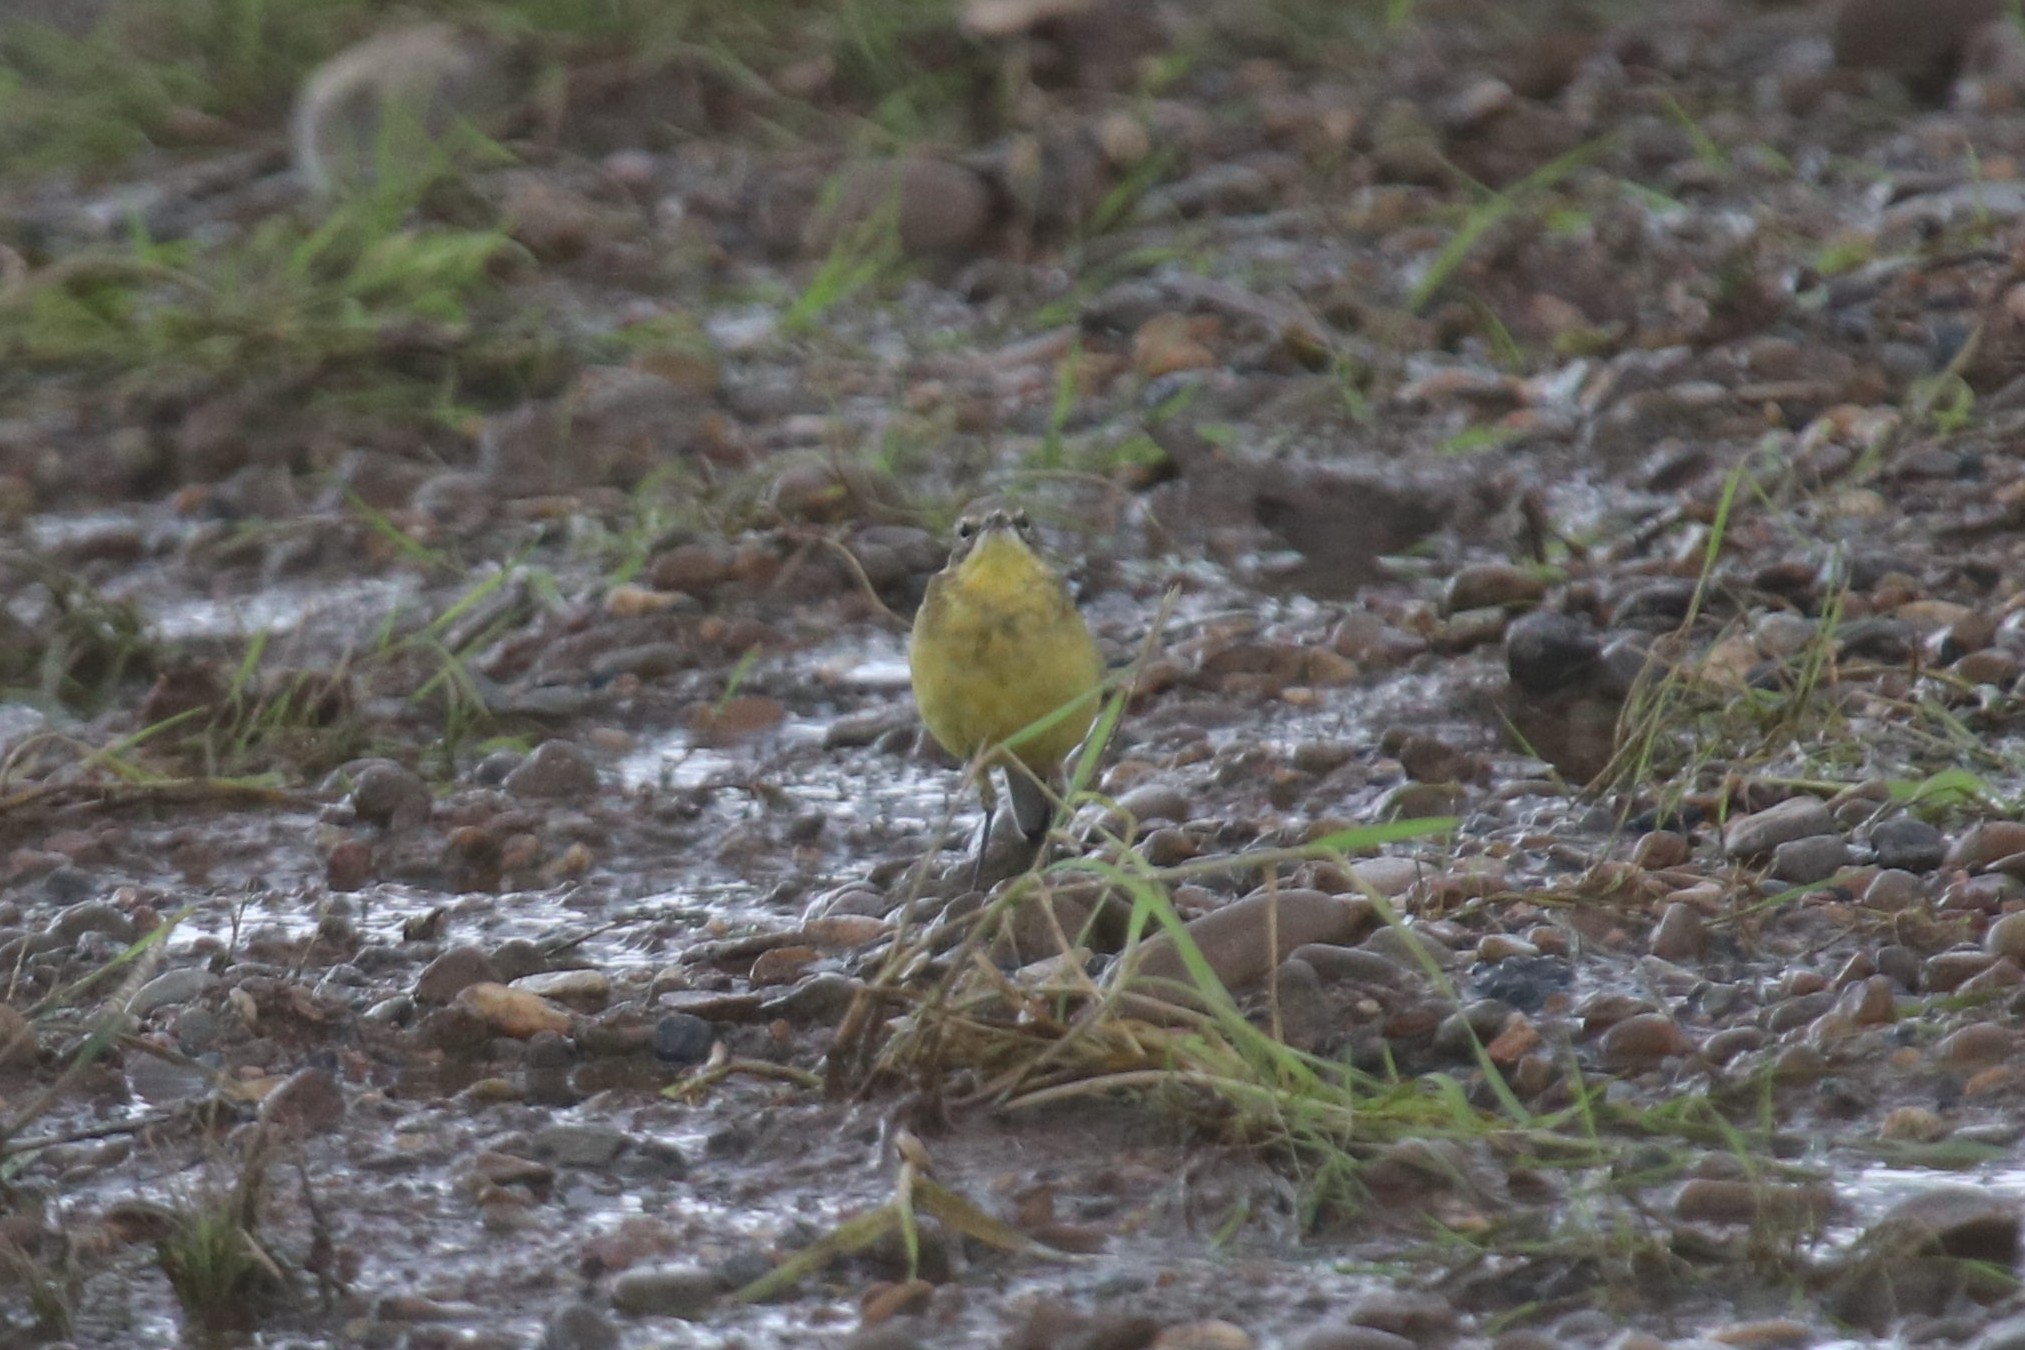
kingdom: Animalia
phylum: Chordata
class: Aves
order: Passeriformes
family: Motacillidae
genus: Motacilla
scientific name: Motacilla flava
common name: Western yellow wagtail
